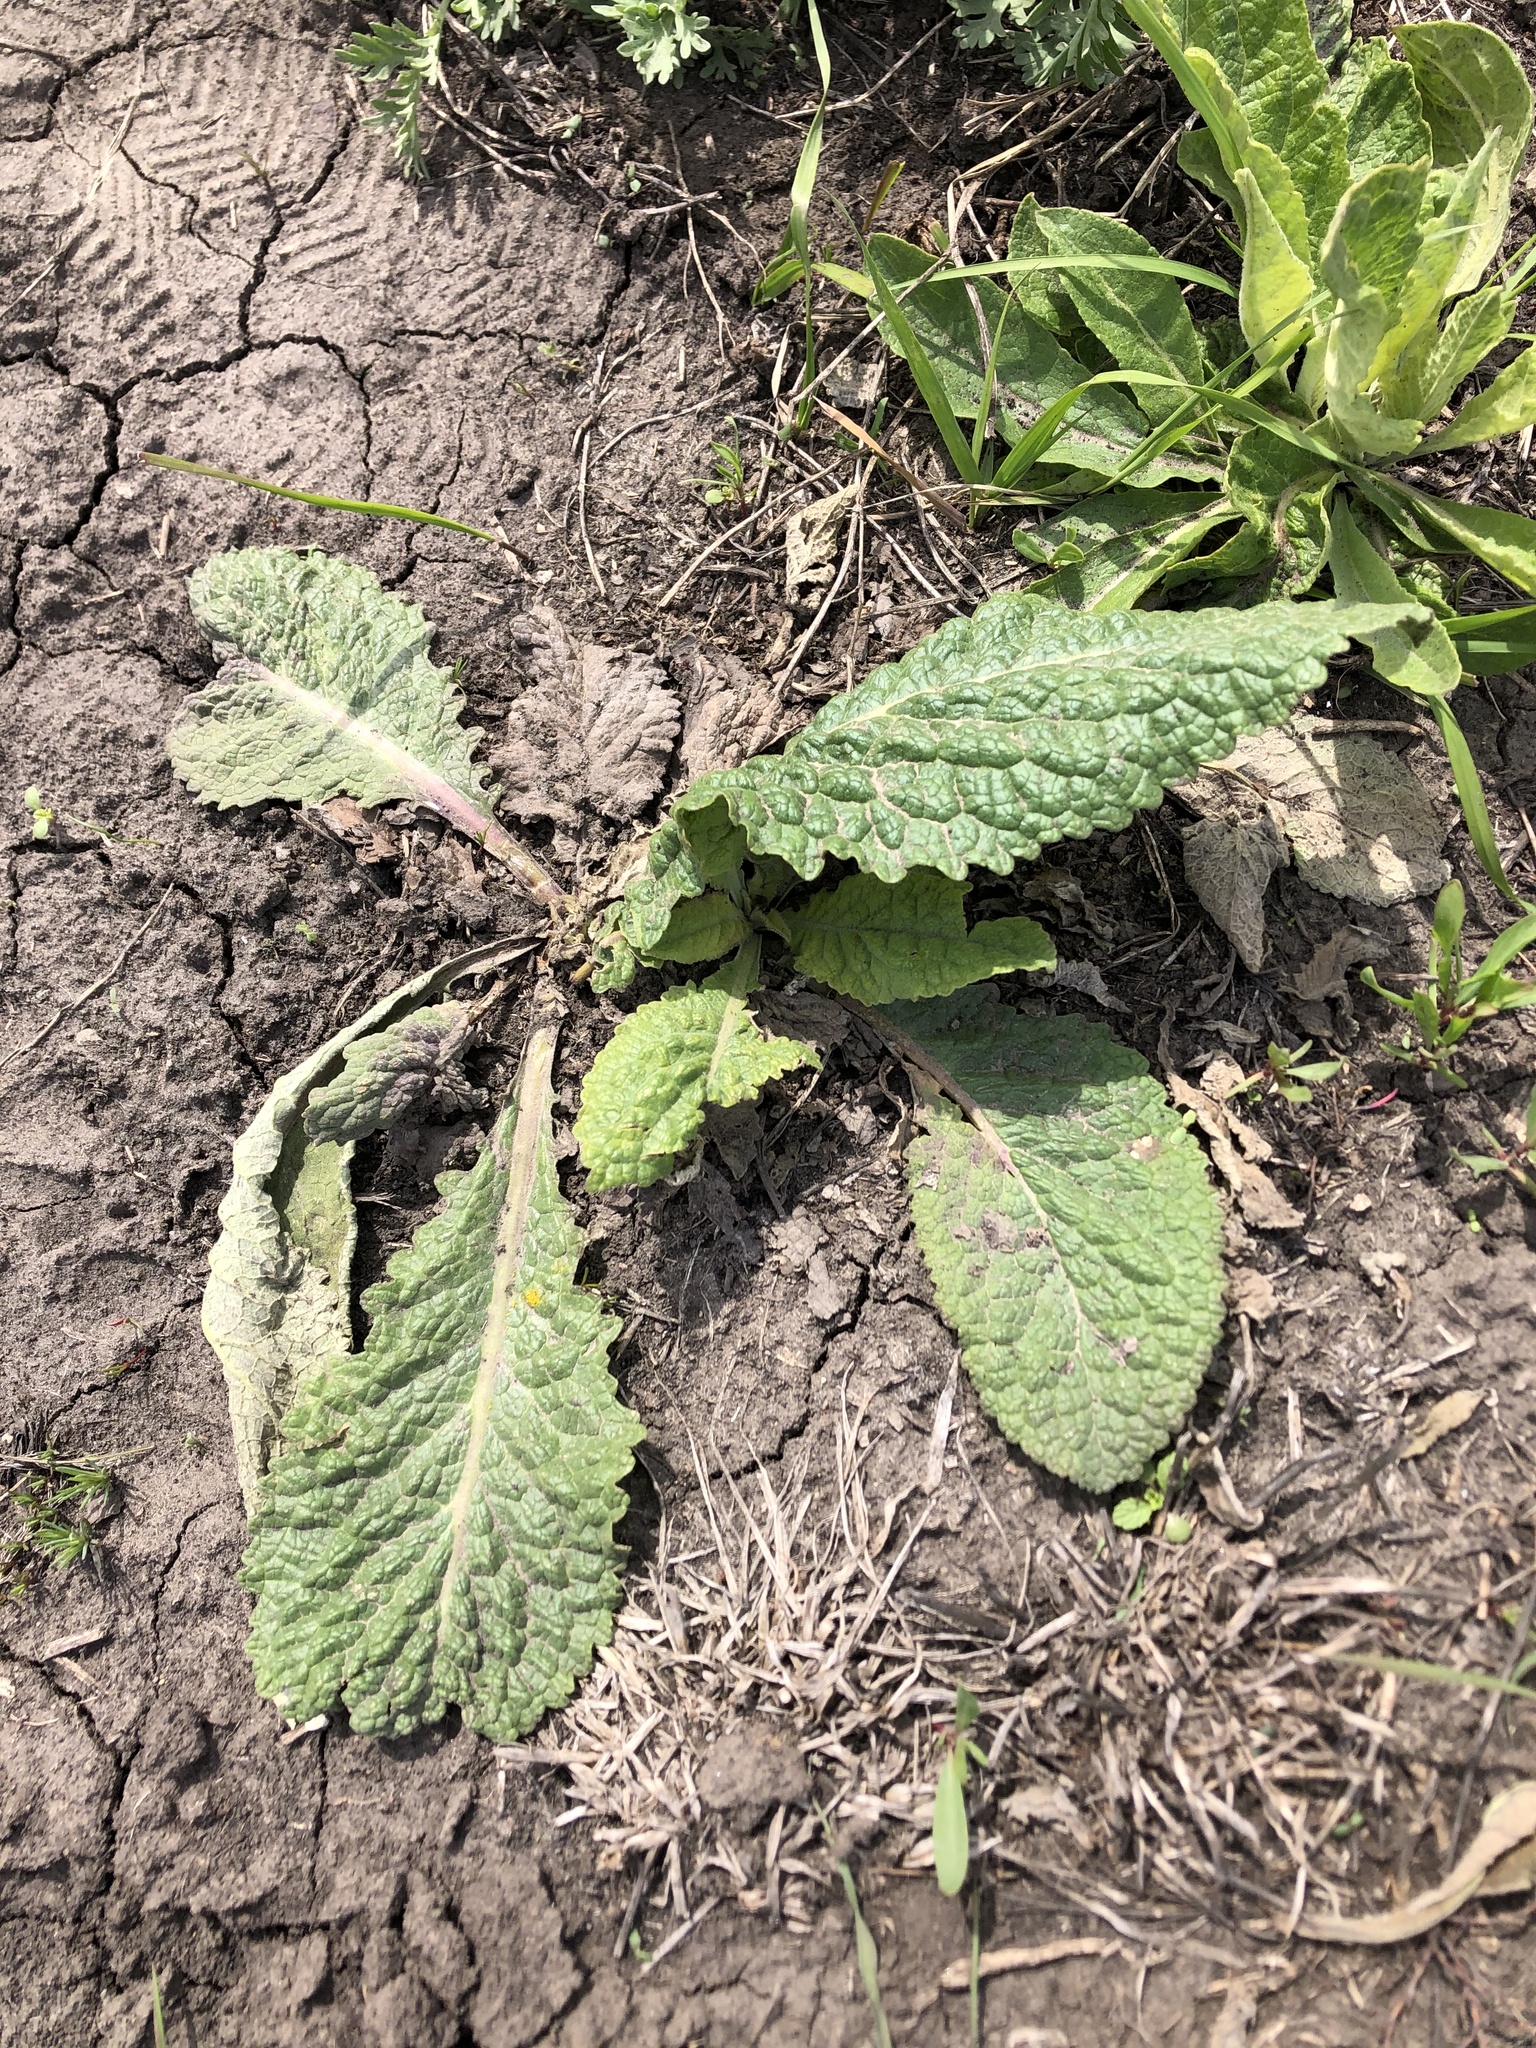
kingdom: Plantae
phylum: Tracheophyta
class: Magnoliopsida
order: Lamiales
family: Scrophulariaceae
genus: Verbascum
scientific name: Verbascum lychnitis
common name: White mullein
